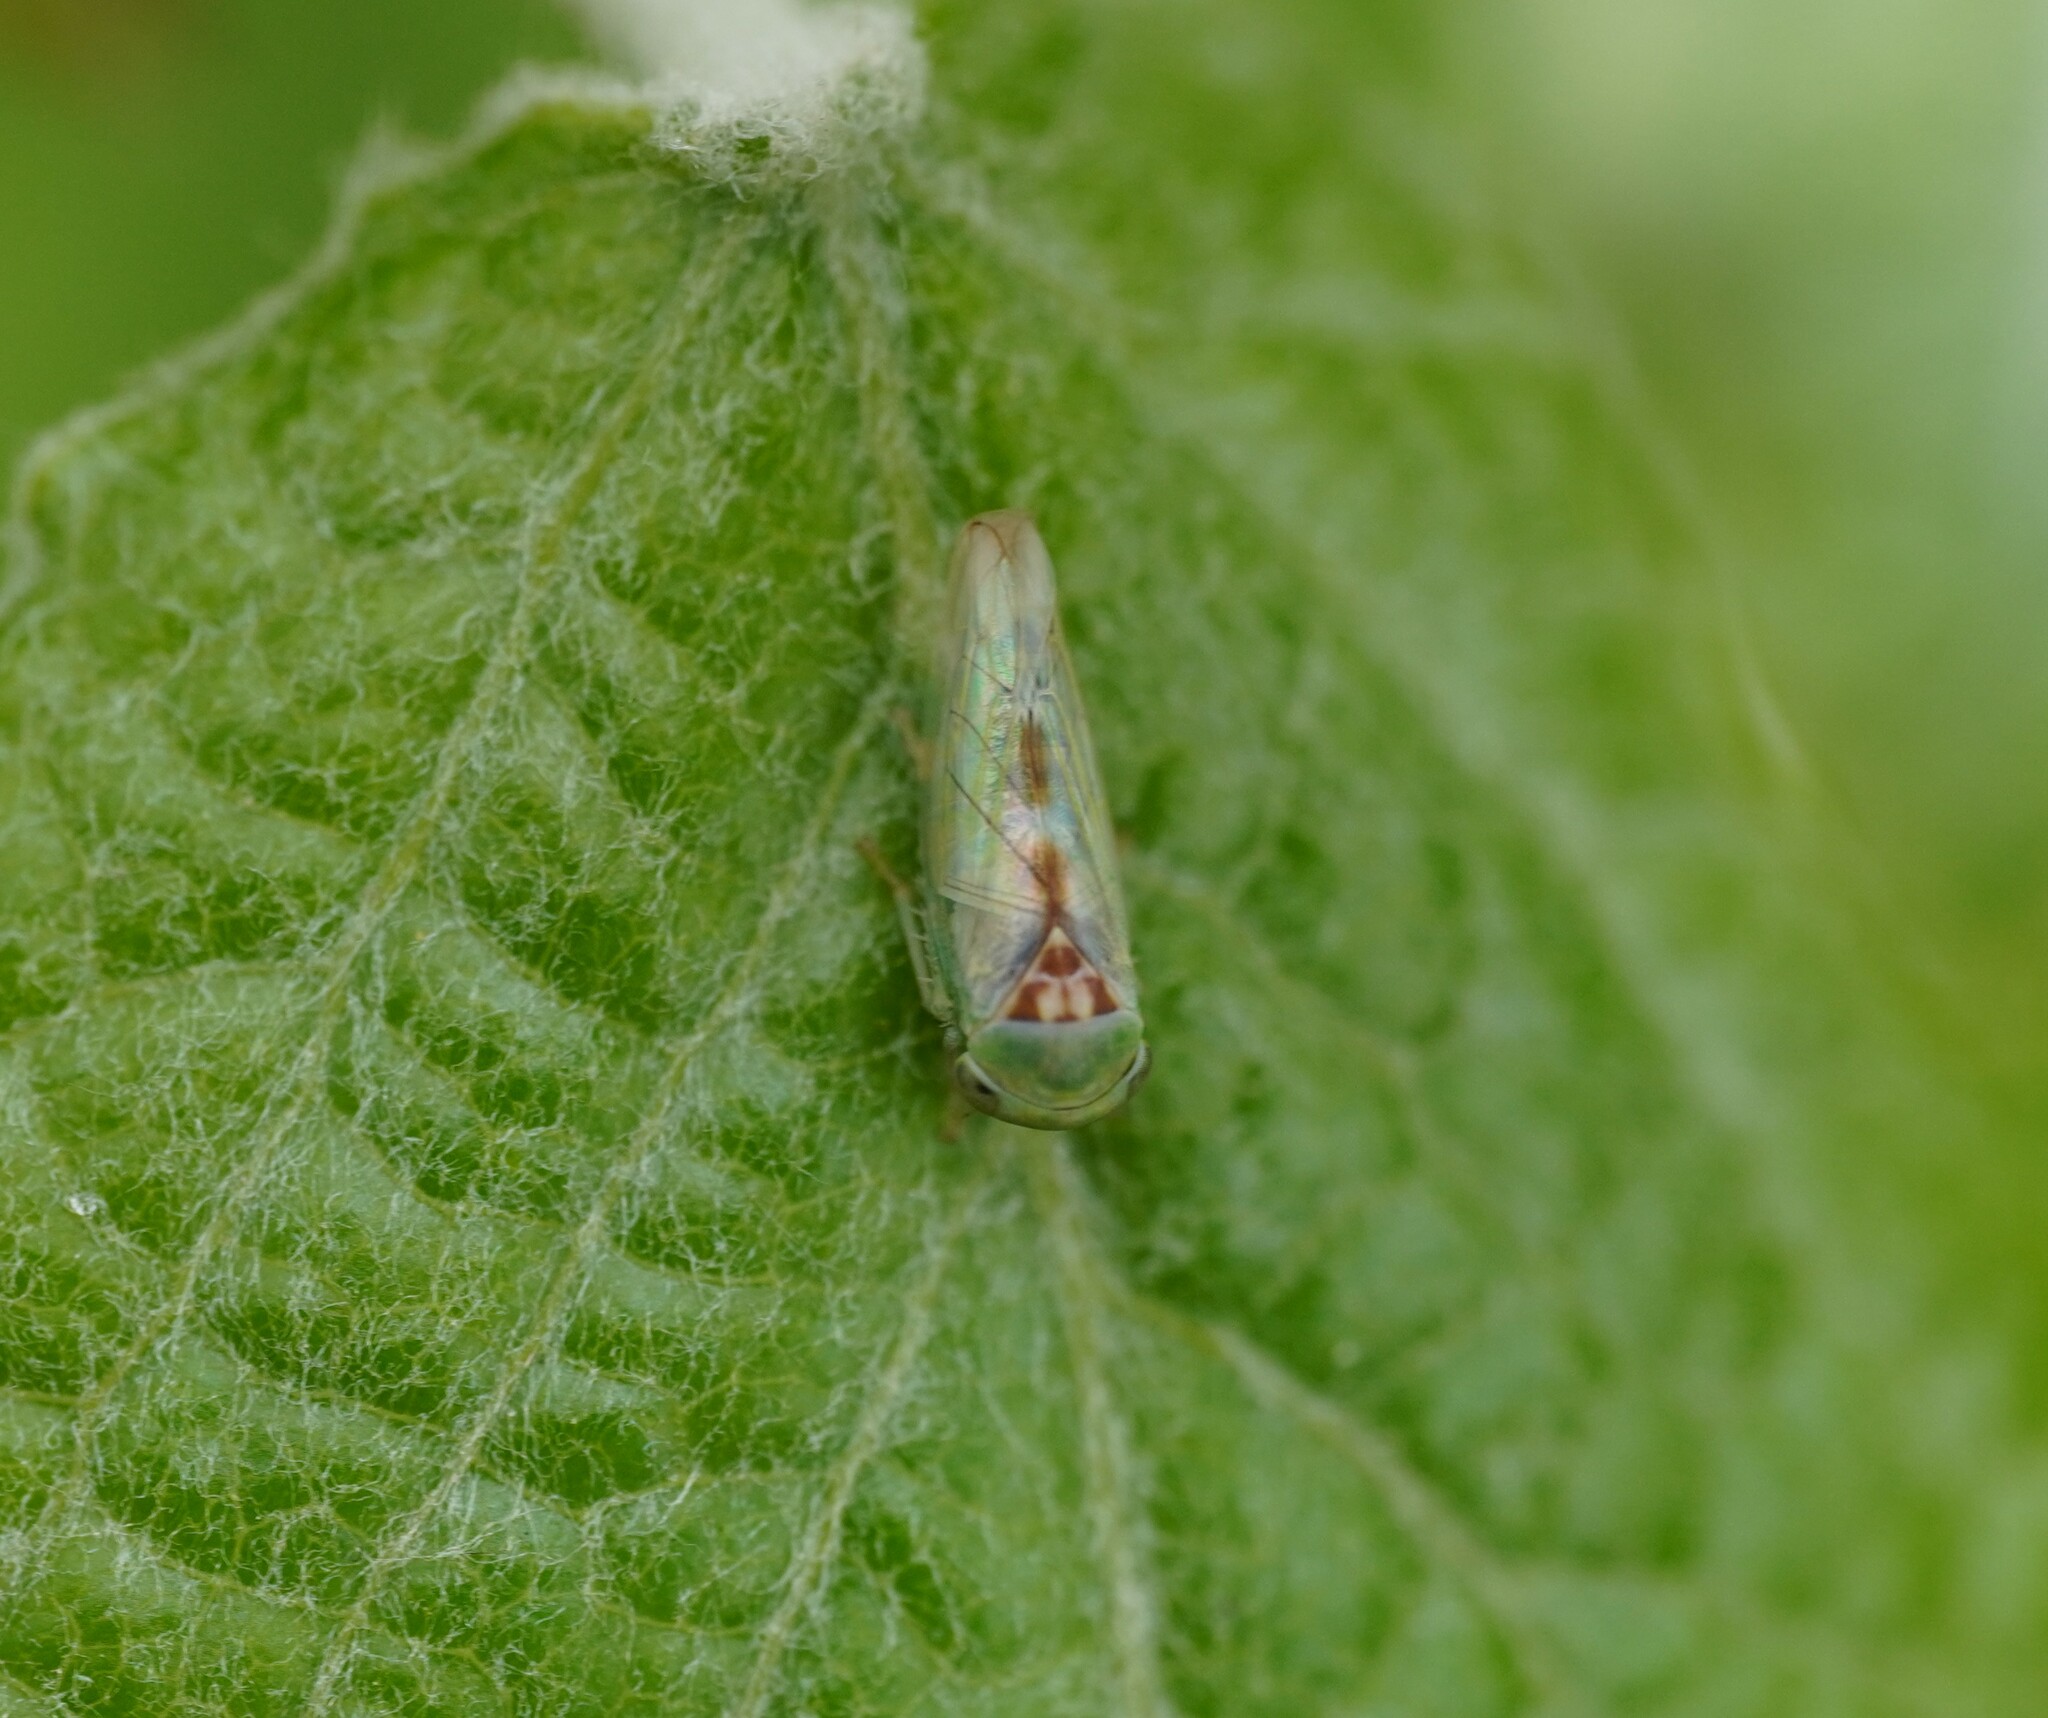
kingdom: Animalia
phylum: Arthropoda
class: Insecta
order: Hemiptera
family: Cicadellidae
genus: Viridicerus
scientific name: Viridicerus ustulatus
